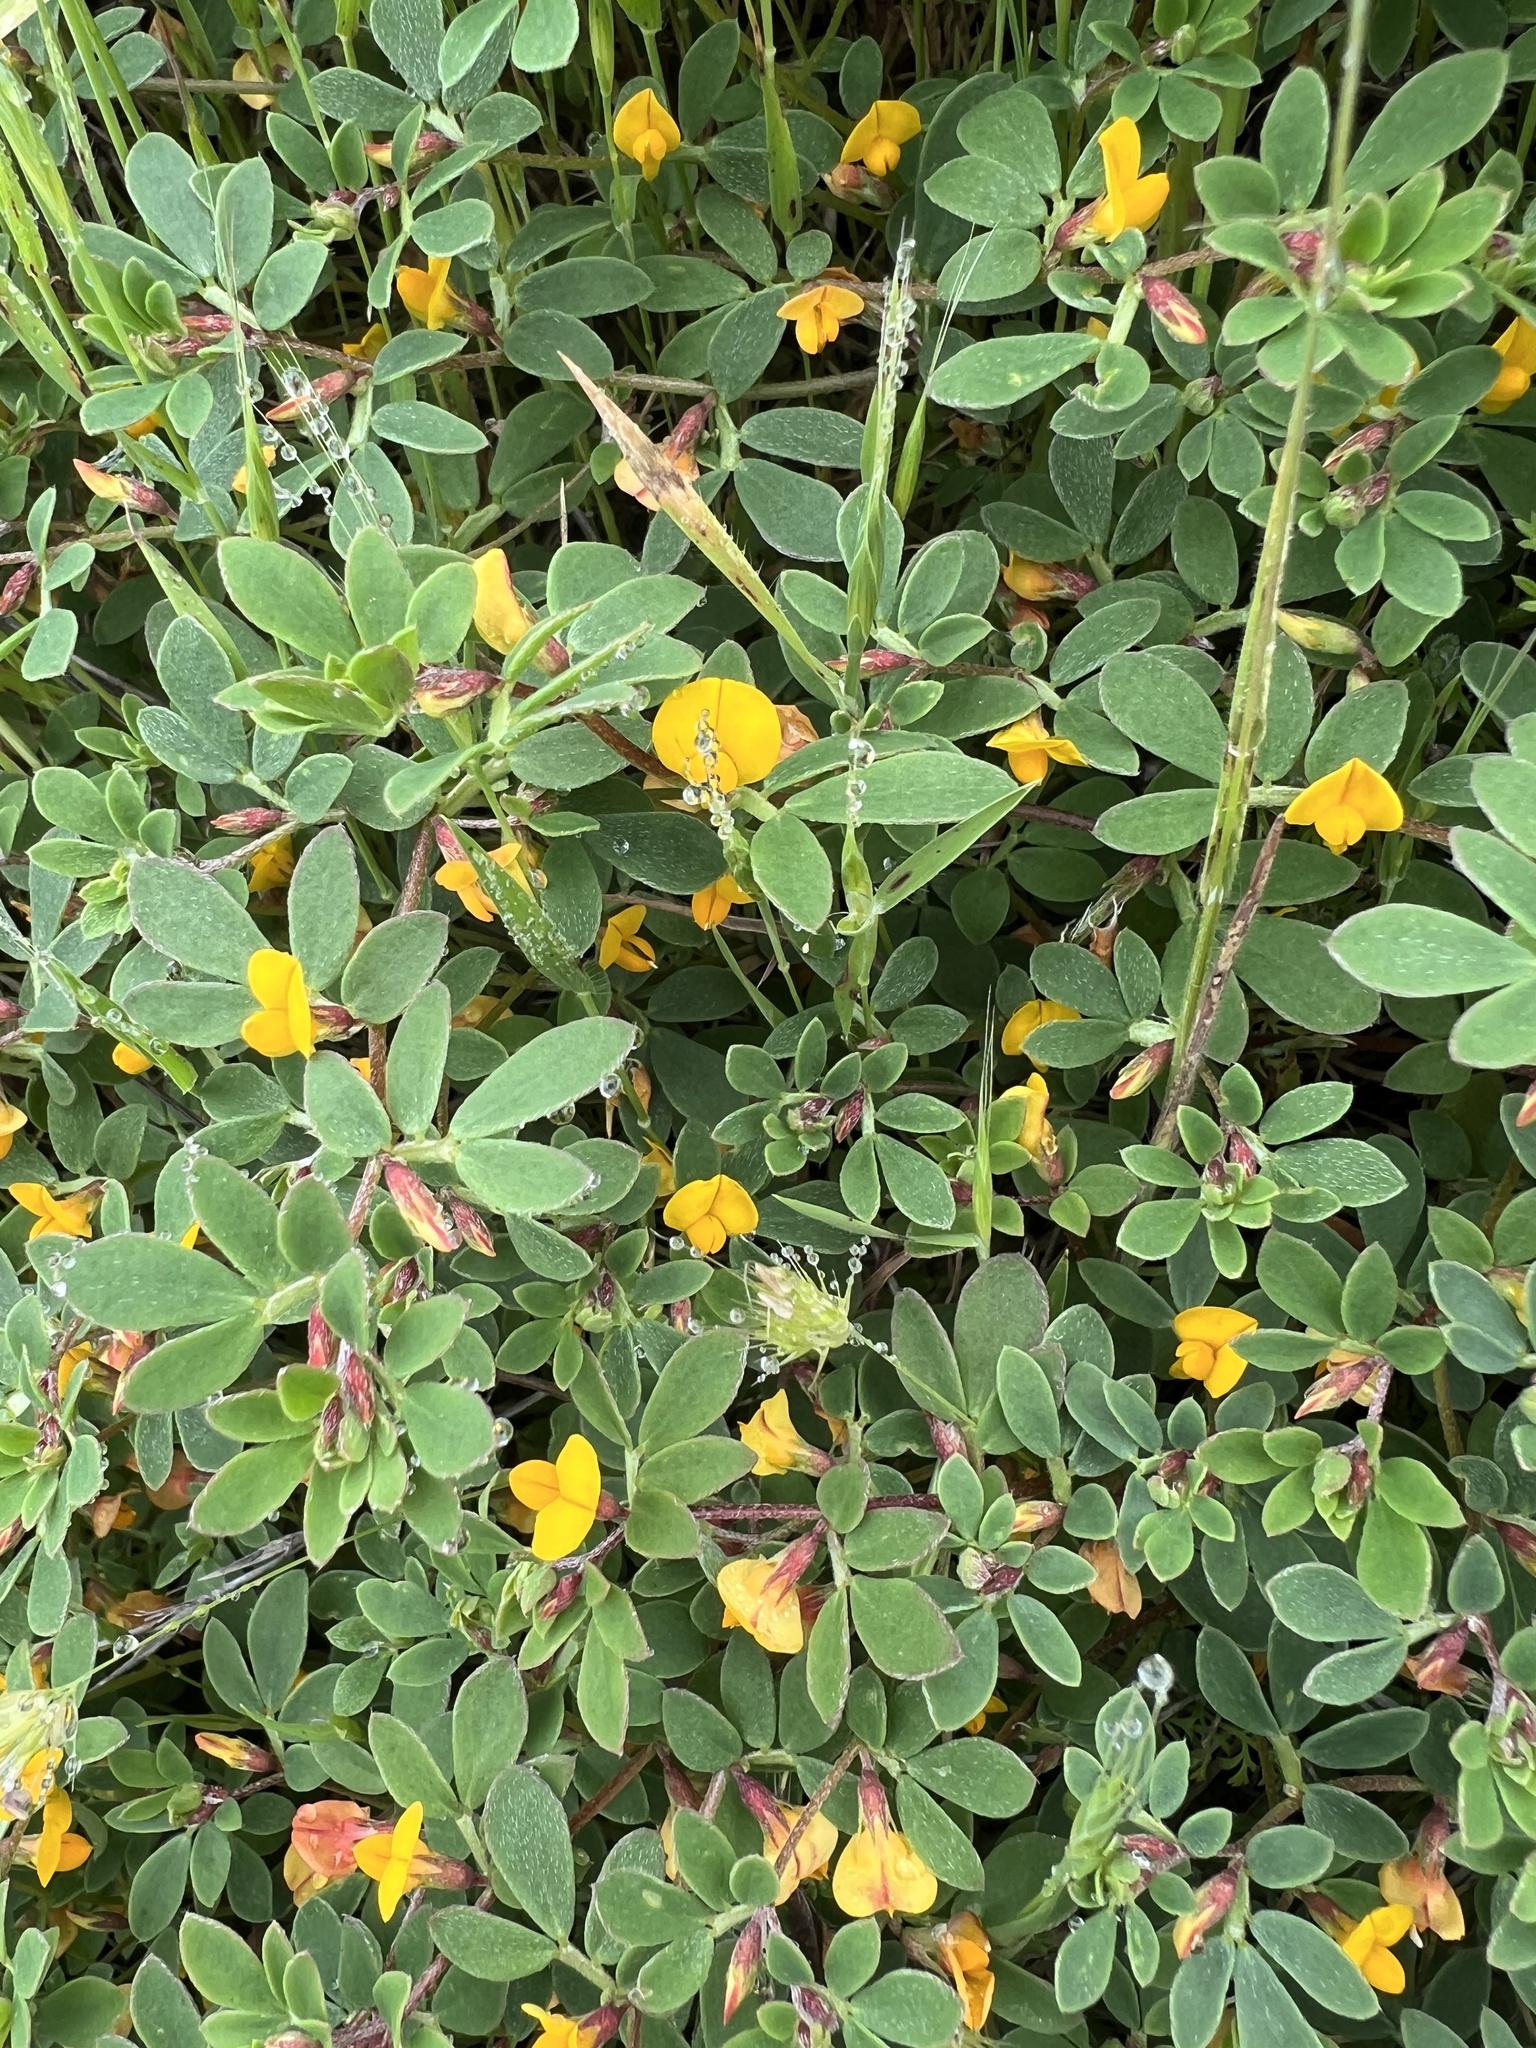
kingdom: Plantae
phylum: Tracheophyta
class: Magnoliopsida
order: Fabales
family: Fabaceae
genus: Acmispon
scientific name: Acmispon wrangelianus
